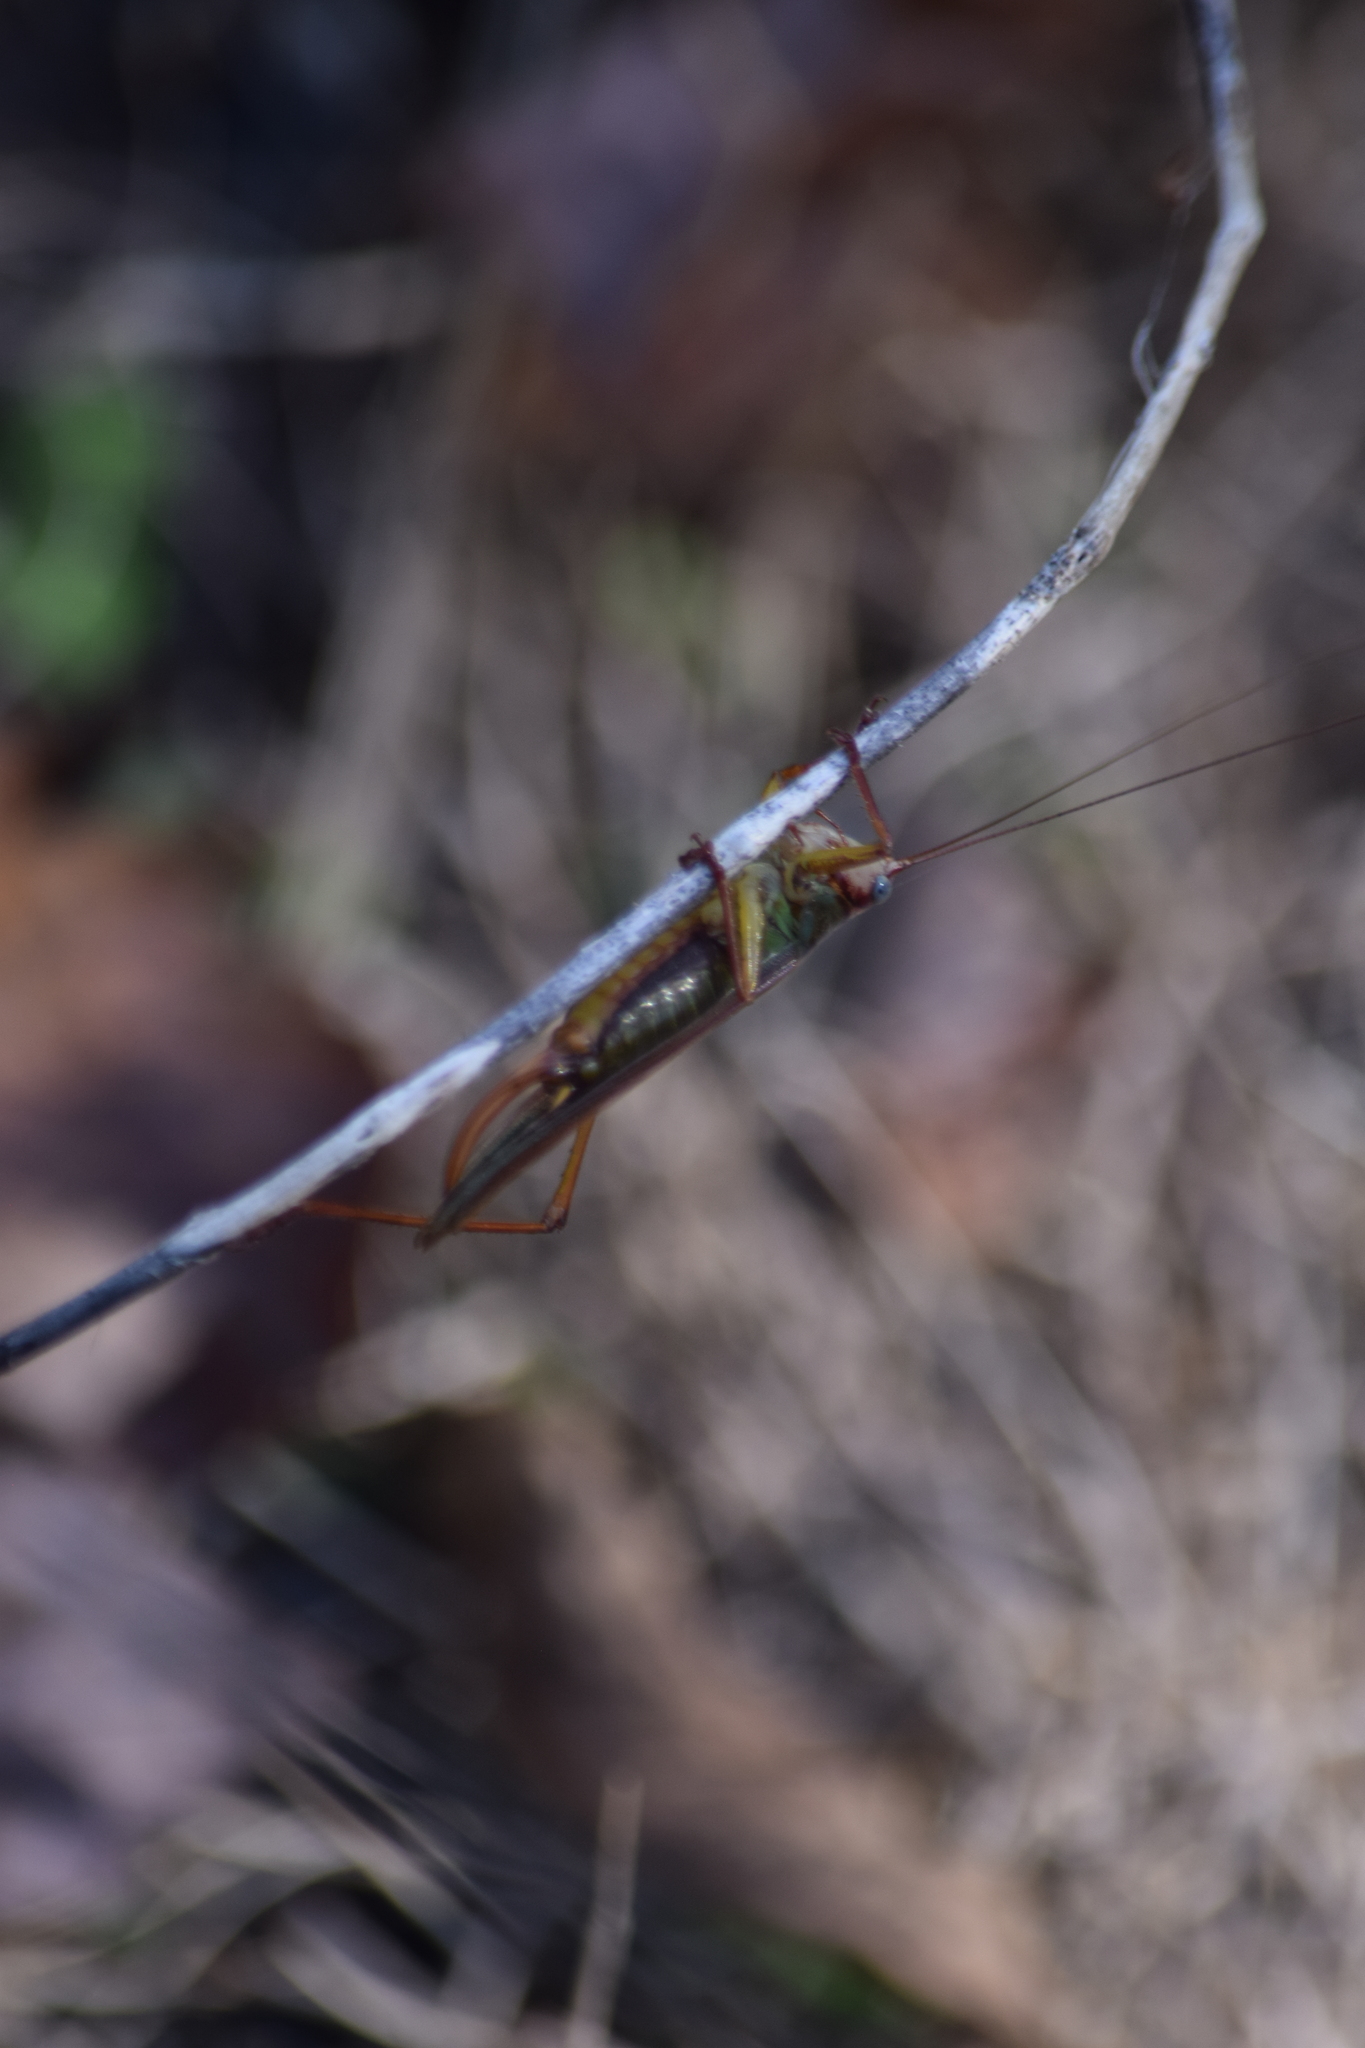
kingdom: Animalia
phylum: Arthropoda
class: Insecta
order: Orthoptera
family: Tettigoniidae
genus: Orchelimum
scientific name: Orchelimum pulchellum
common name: Handsome meadow katydid
